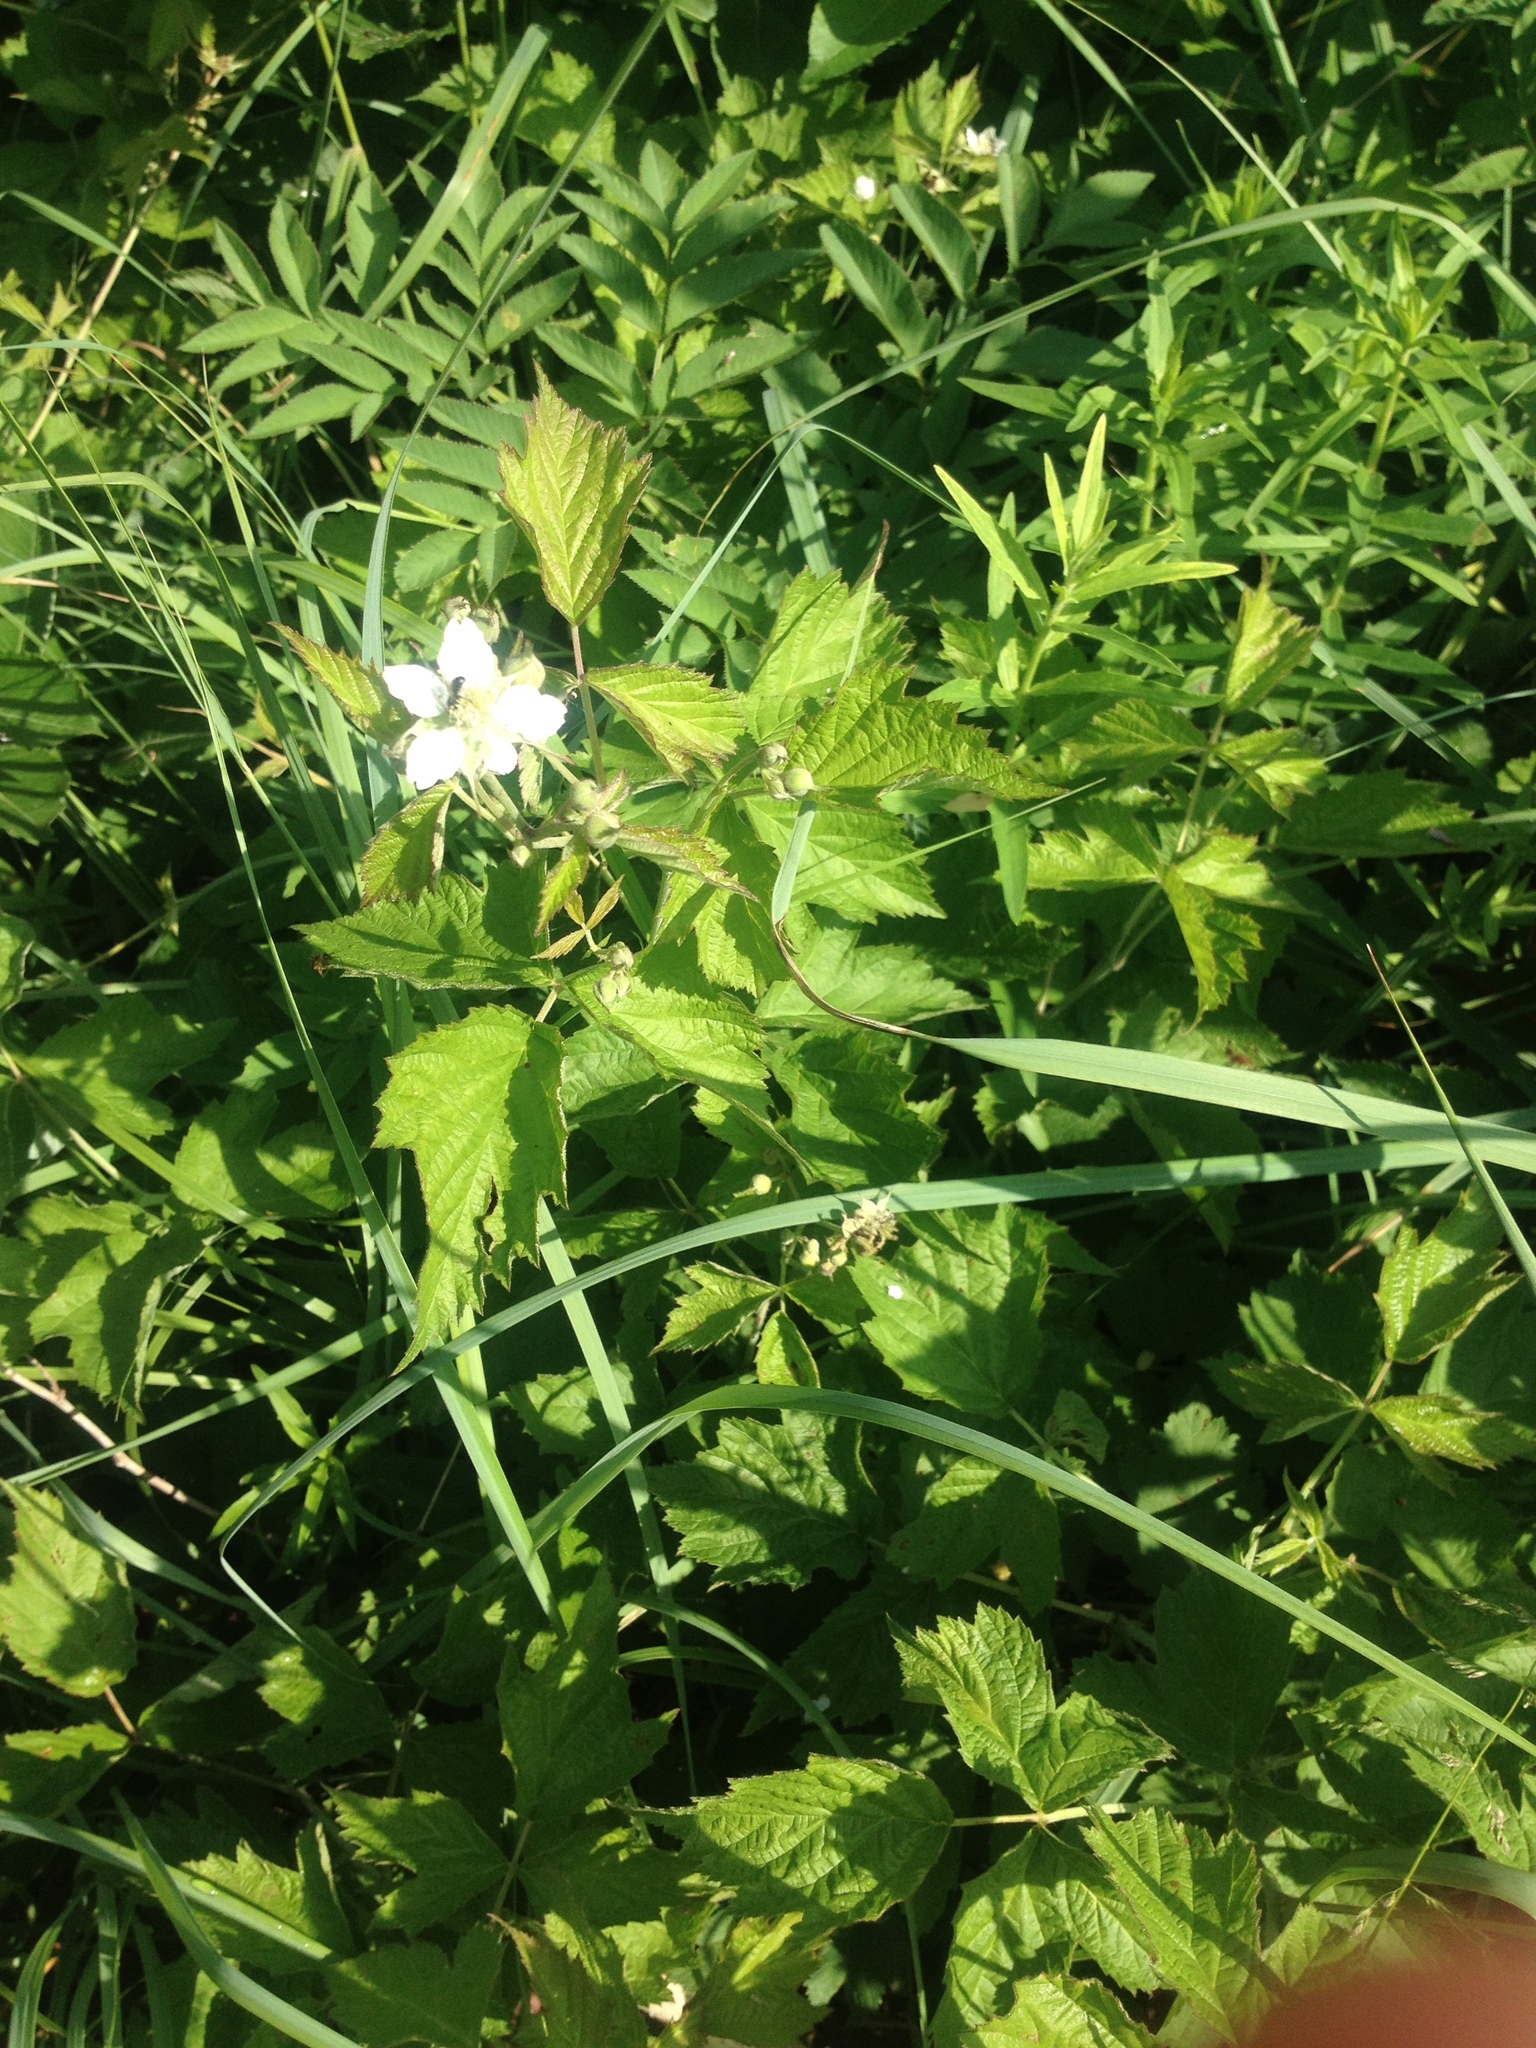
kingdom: Plantae
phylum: Tracheophyta
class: Magnoliopsida
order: Rosales
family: Rosaceae
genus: Rubus
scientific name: Rubus caesius
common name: Dewberry
